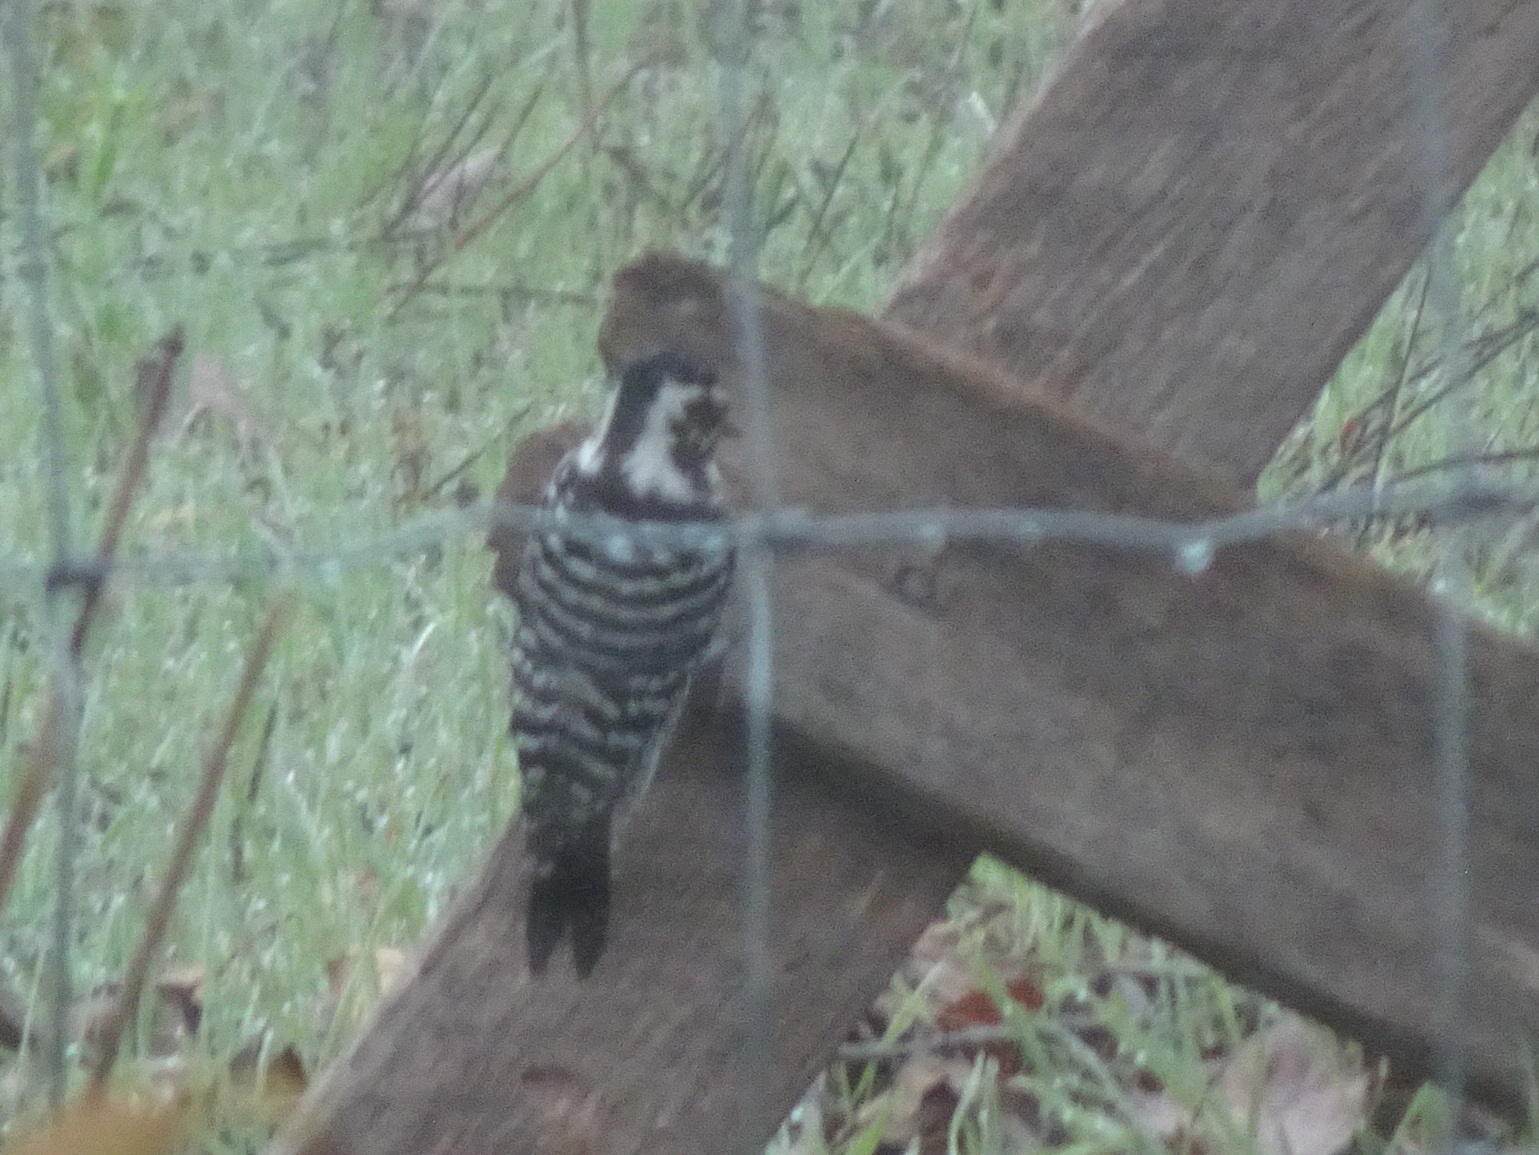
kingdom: Animalia
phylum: Chordata
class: Aves
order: Piciformes
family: Picidae
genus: Dryobates
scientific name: Dryobates nuttallii
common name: Nuttall's woodpecker
